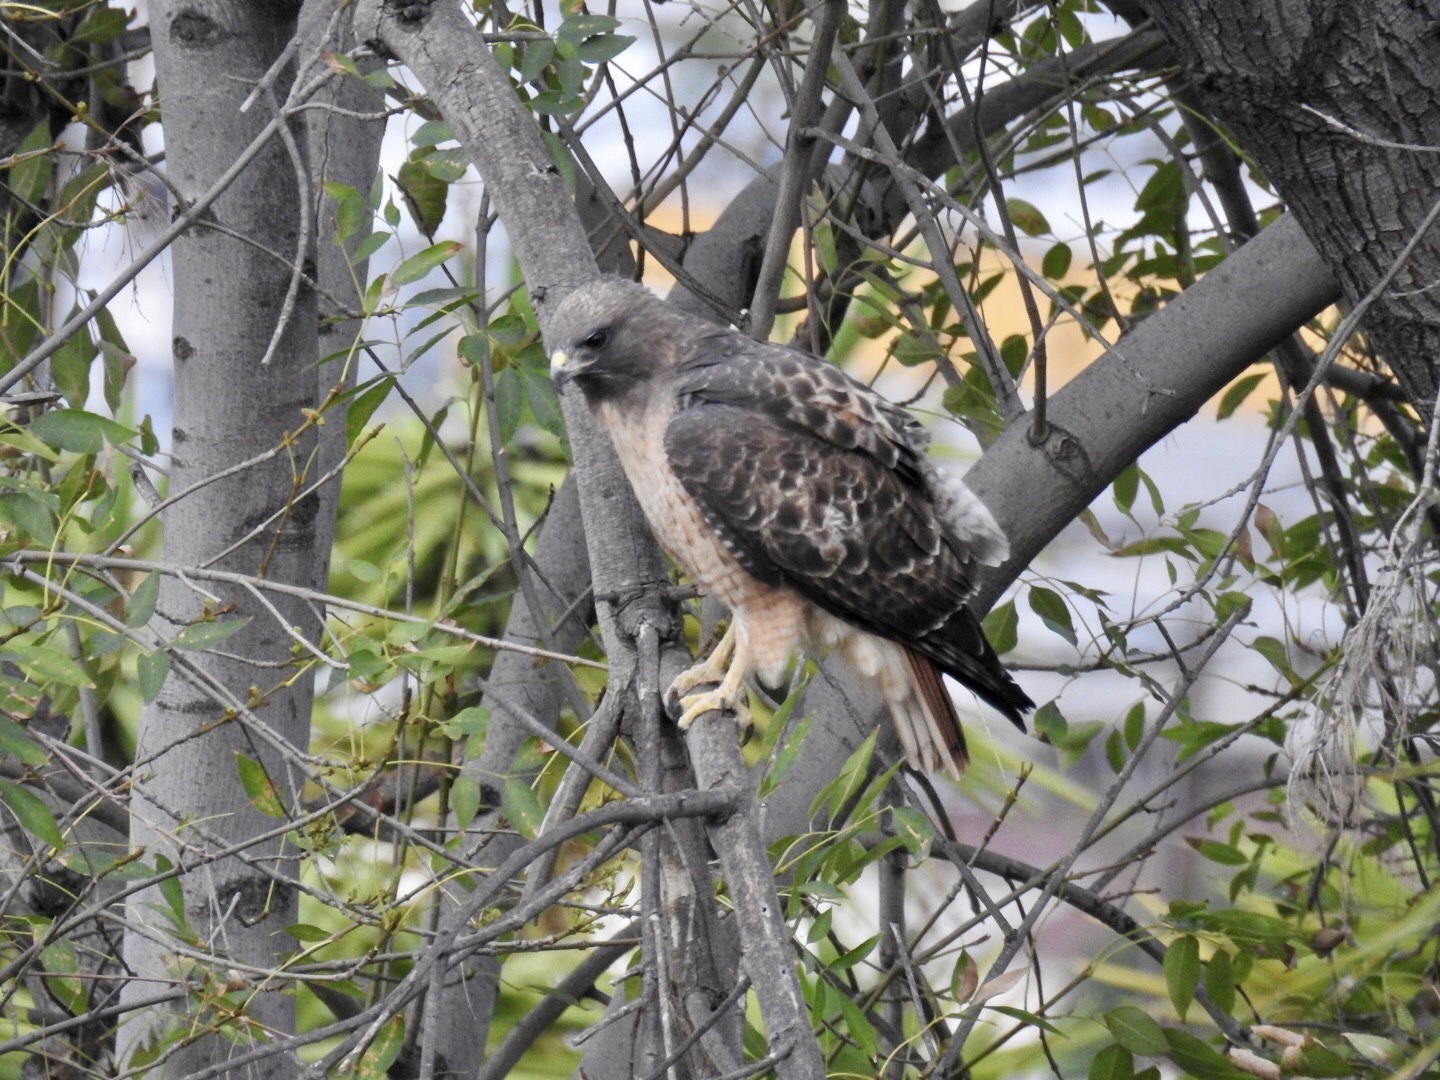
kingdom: Animalia
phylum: Chordata
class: Aves
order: Accipitriformes
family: Accipitridae
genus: Buteo
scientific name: Buteo jamaicensis
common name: Red-tailed hawk
